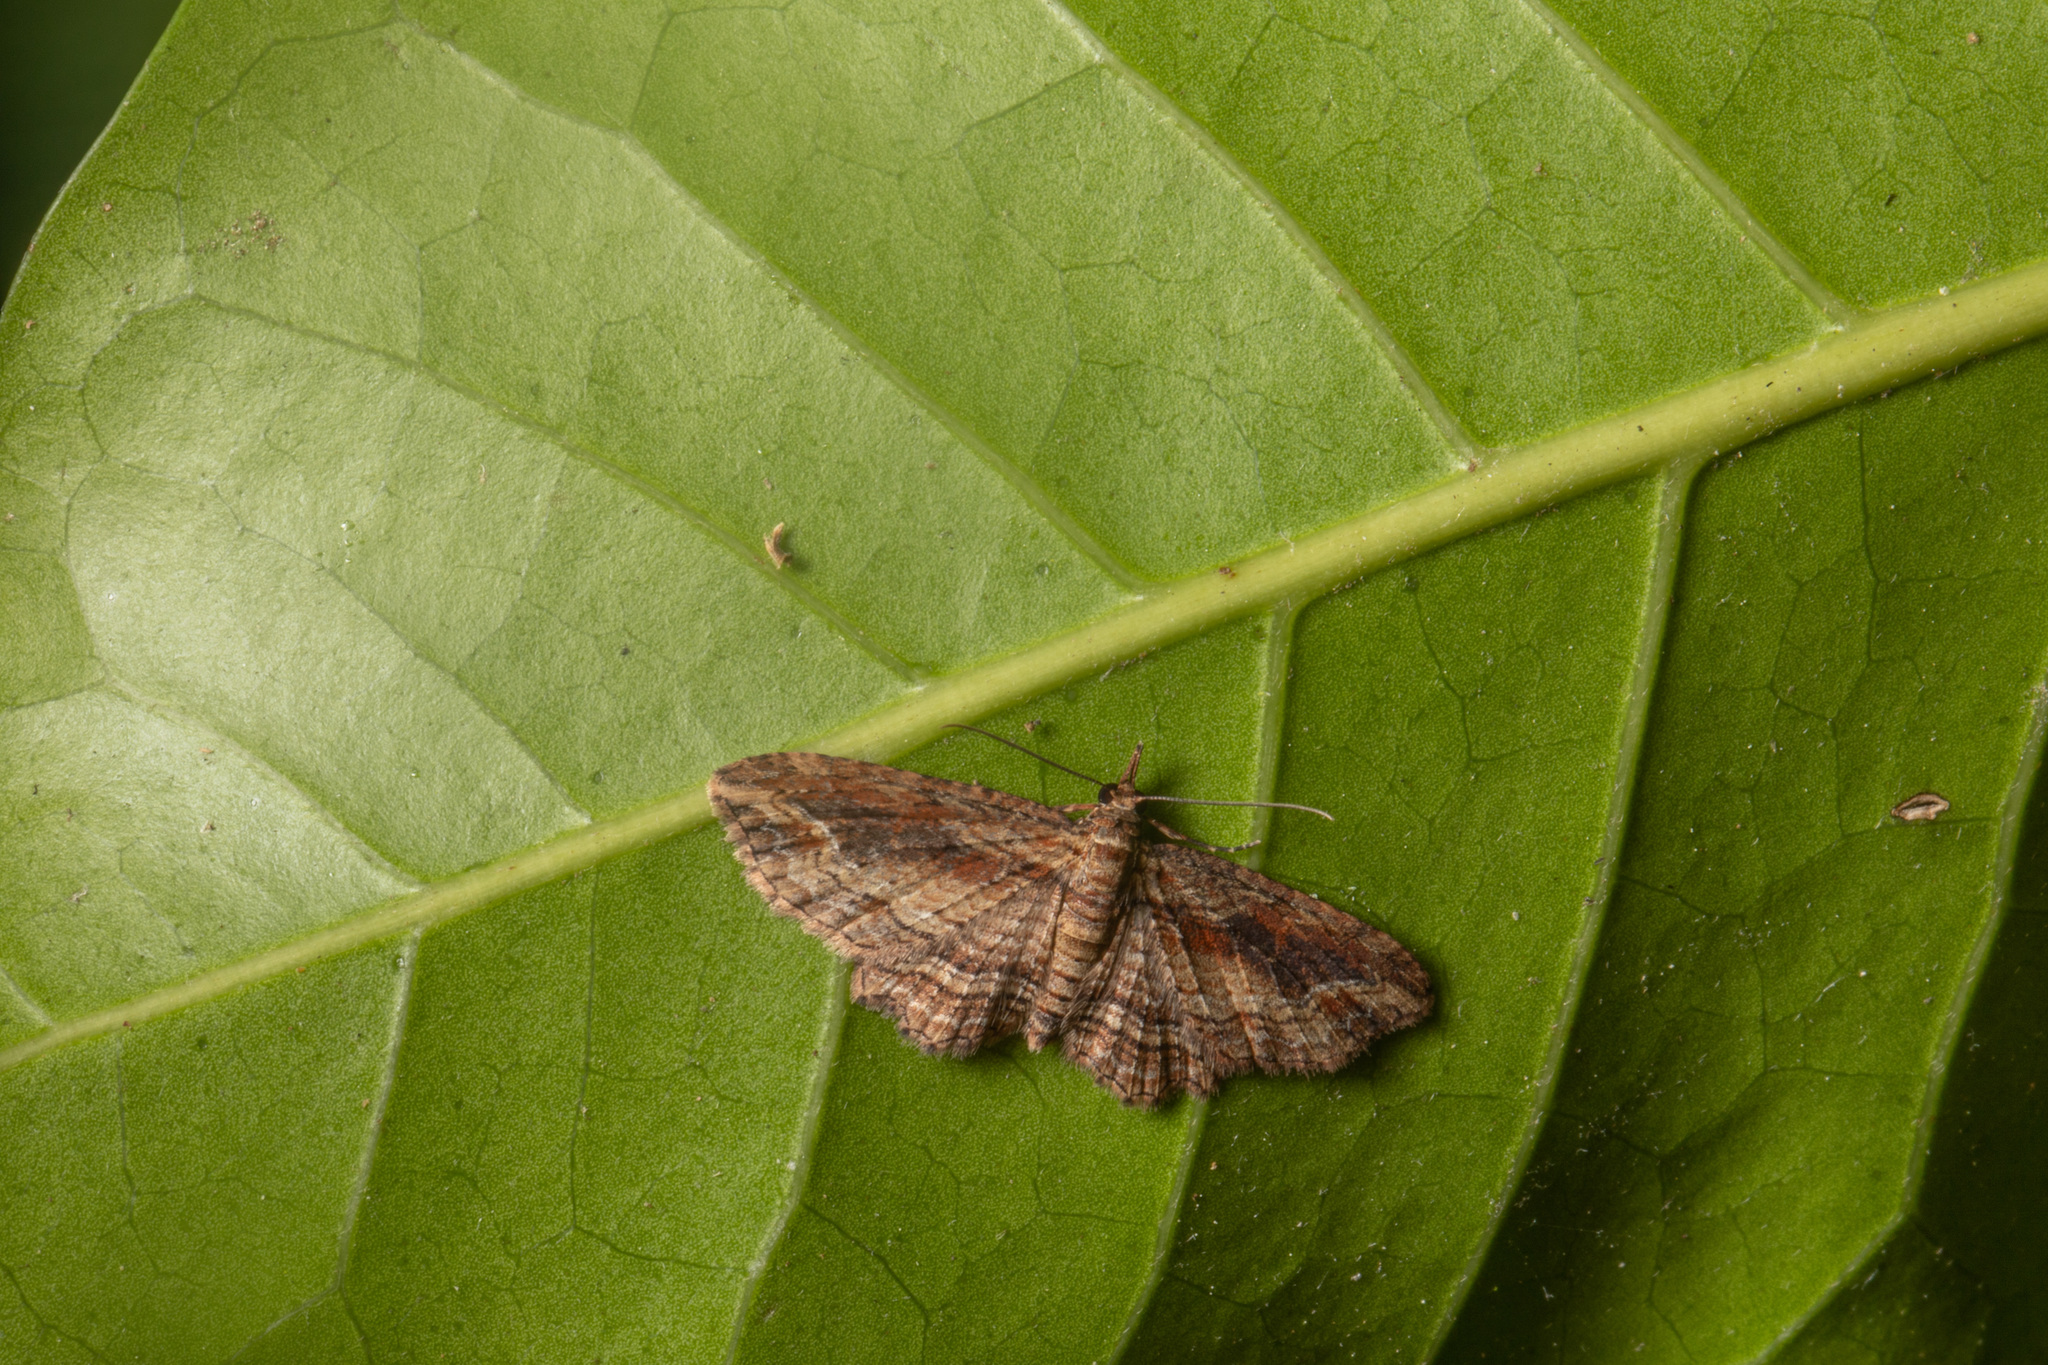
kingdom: Animalia
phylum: Arthropoda
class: Insecta
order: Lepidoptera
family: Geometridae
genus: Chloroclystis
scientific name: Chloroclystis filata
